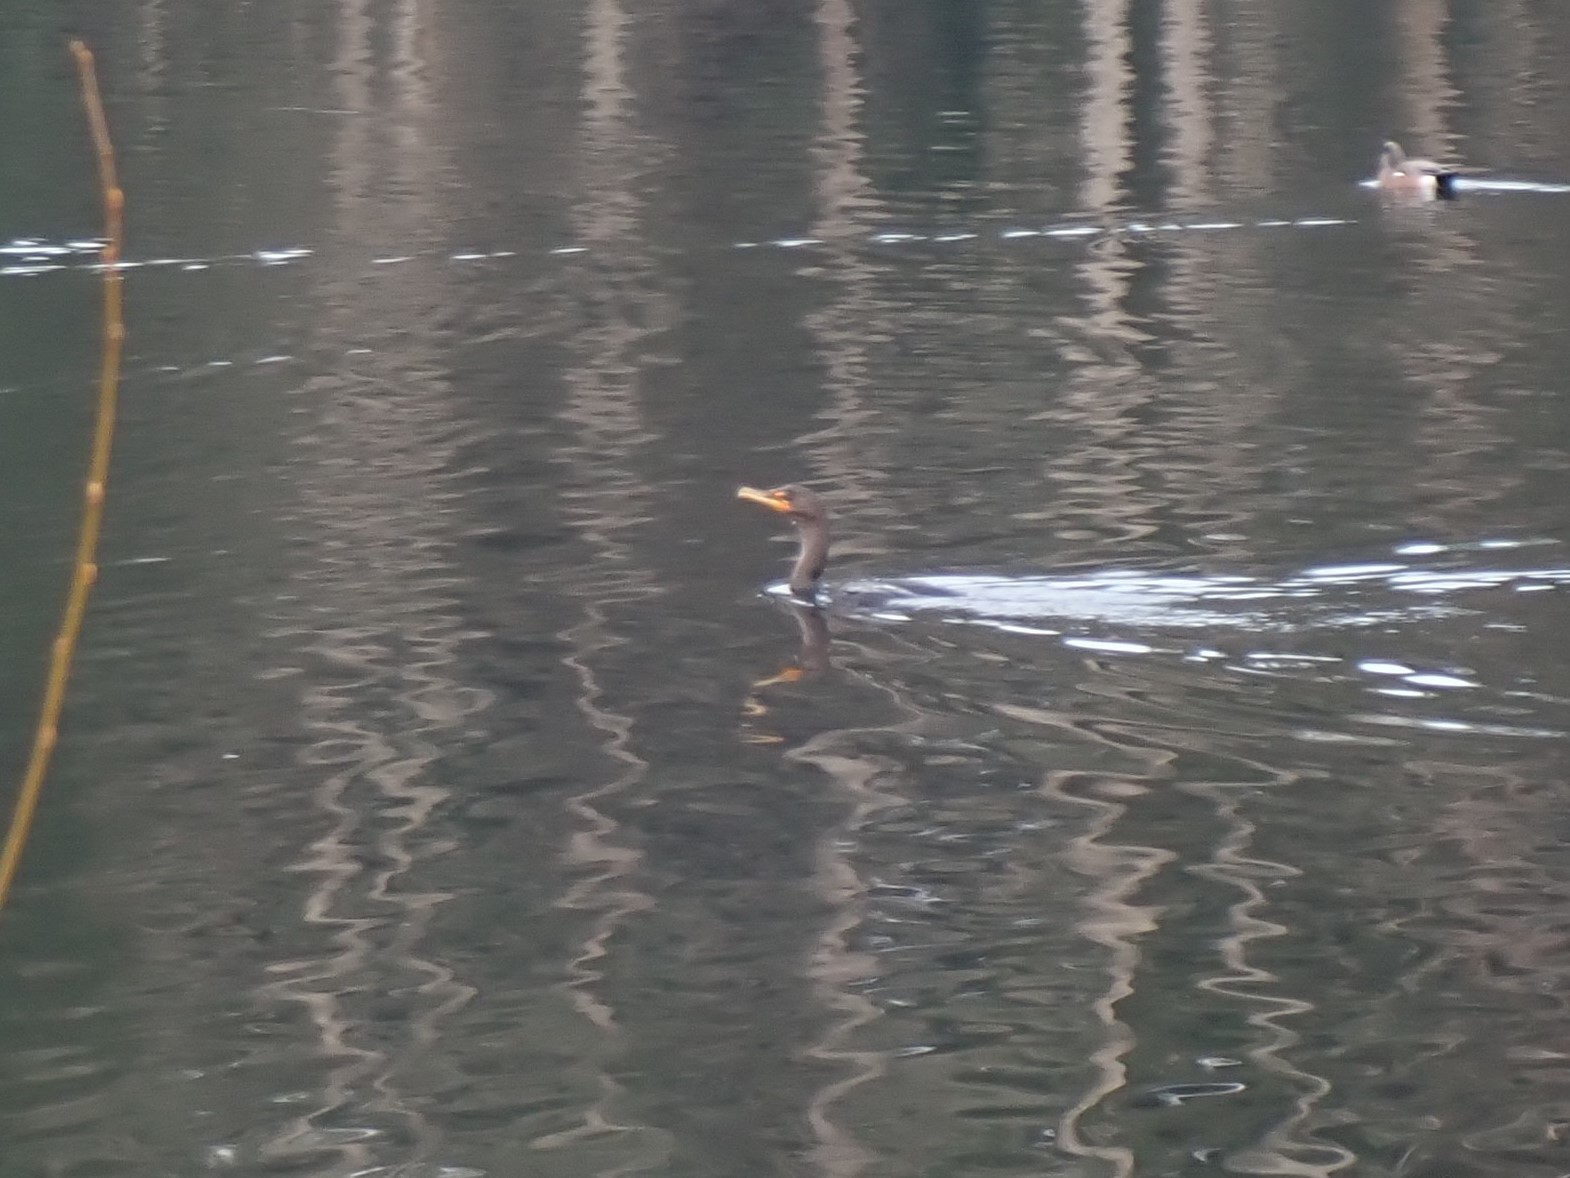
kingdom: Animalia
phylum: Chordata
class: Aves
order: Suliformes
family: Phalacrocoracidae
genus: Phalacrocorax
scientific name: Phalacrocorax auritus
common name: Double-crested cormorant
